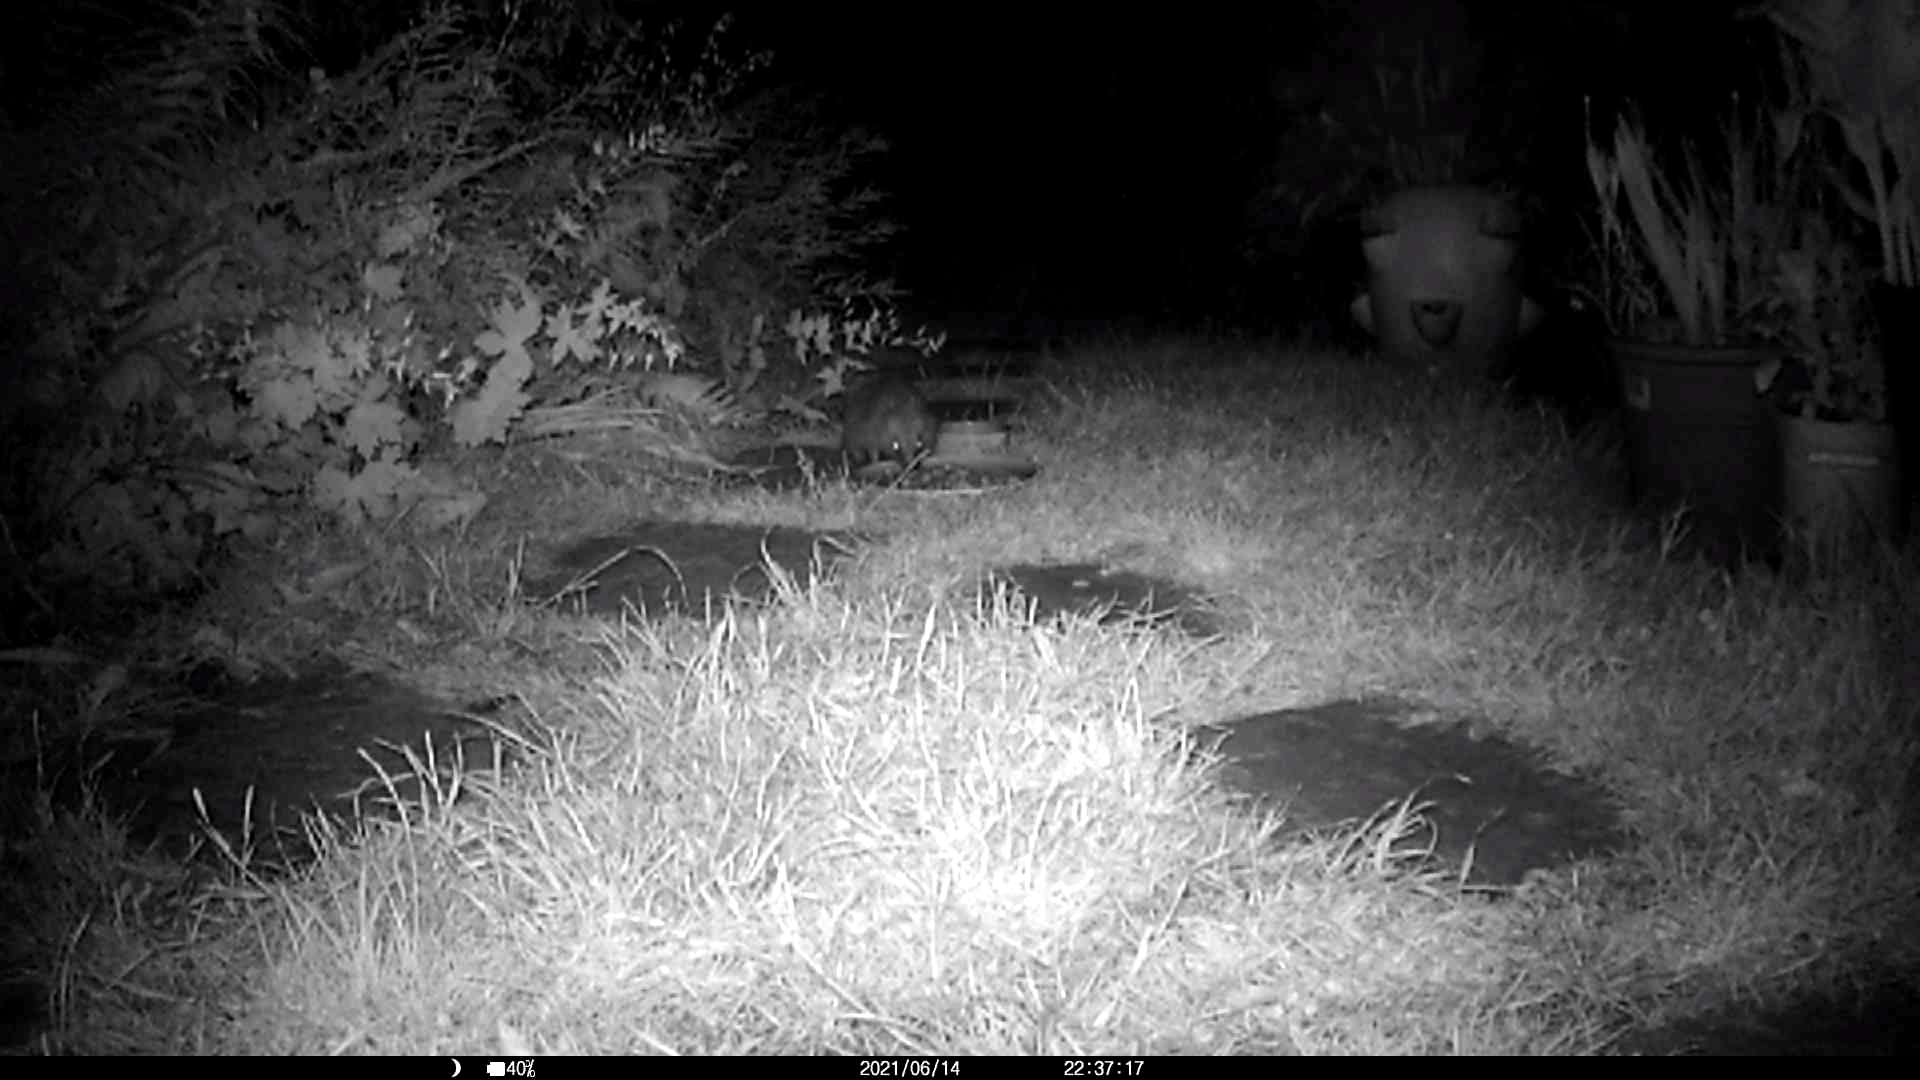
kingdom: Animalia
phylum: Chordata
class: Mammalia
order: Erinaceomorpha
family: Erinaceidae
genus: Erinaceus
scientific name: Erinaceus europaeus
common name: West european hedgehog
